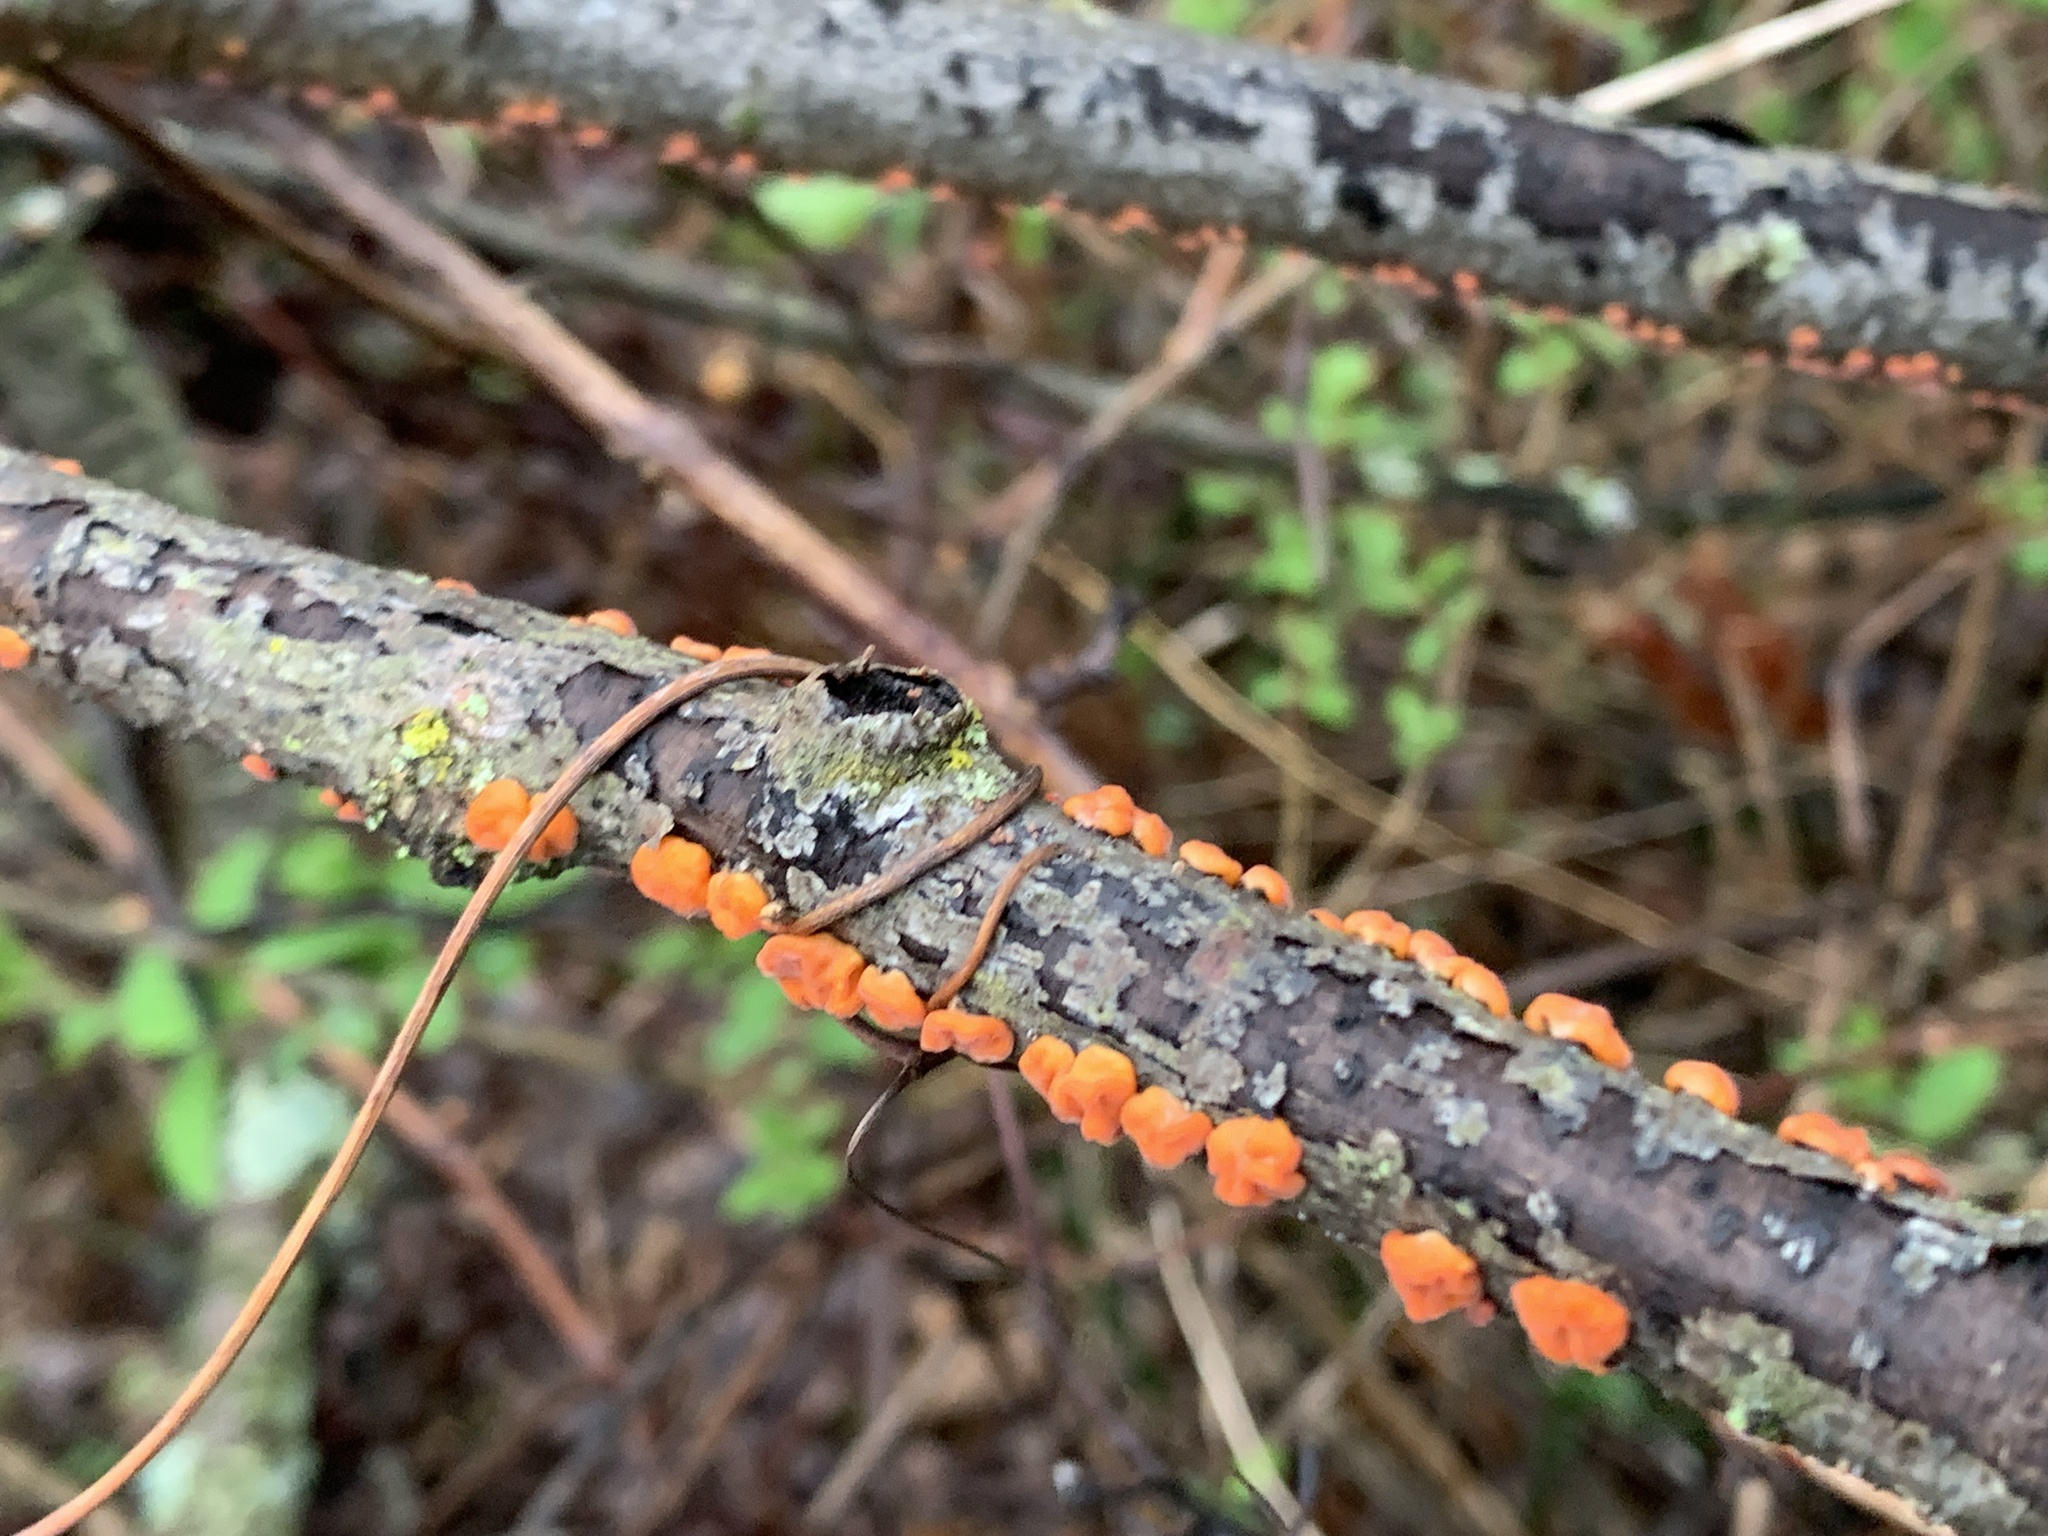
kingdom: Fungi
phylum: Basidiomycota
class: Agaricomycetes
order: Russulales
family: Peniophoraceae
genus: Peniophora
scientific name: Peniophora rufa
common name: Red tree brain fungus
